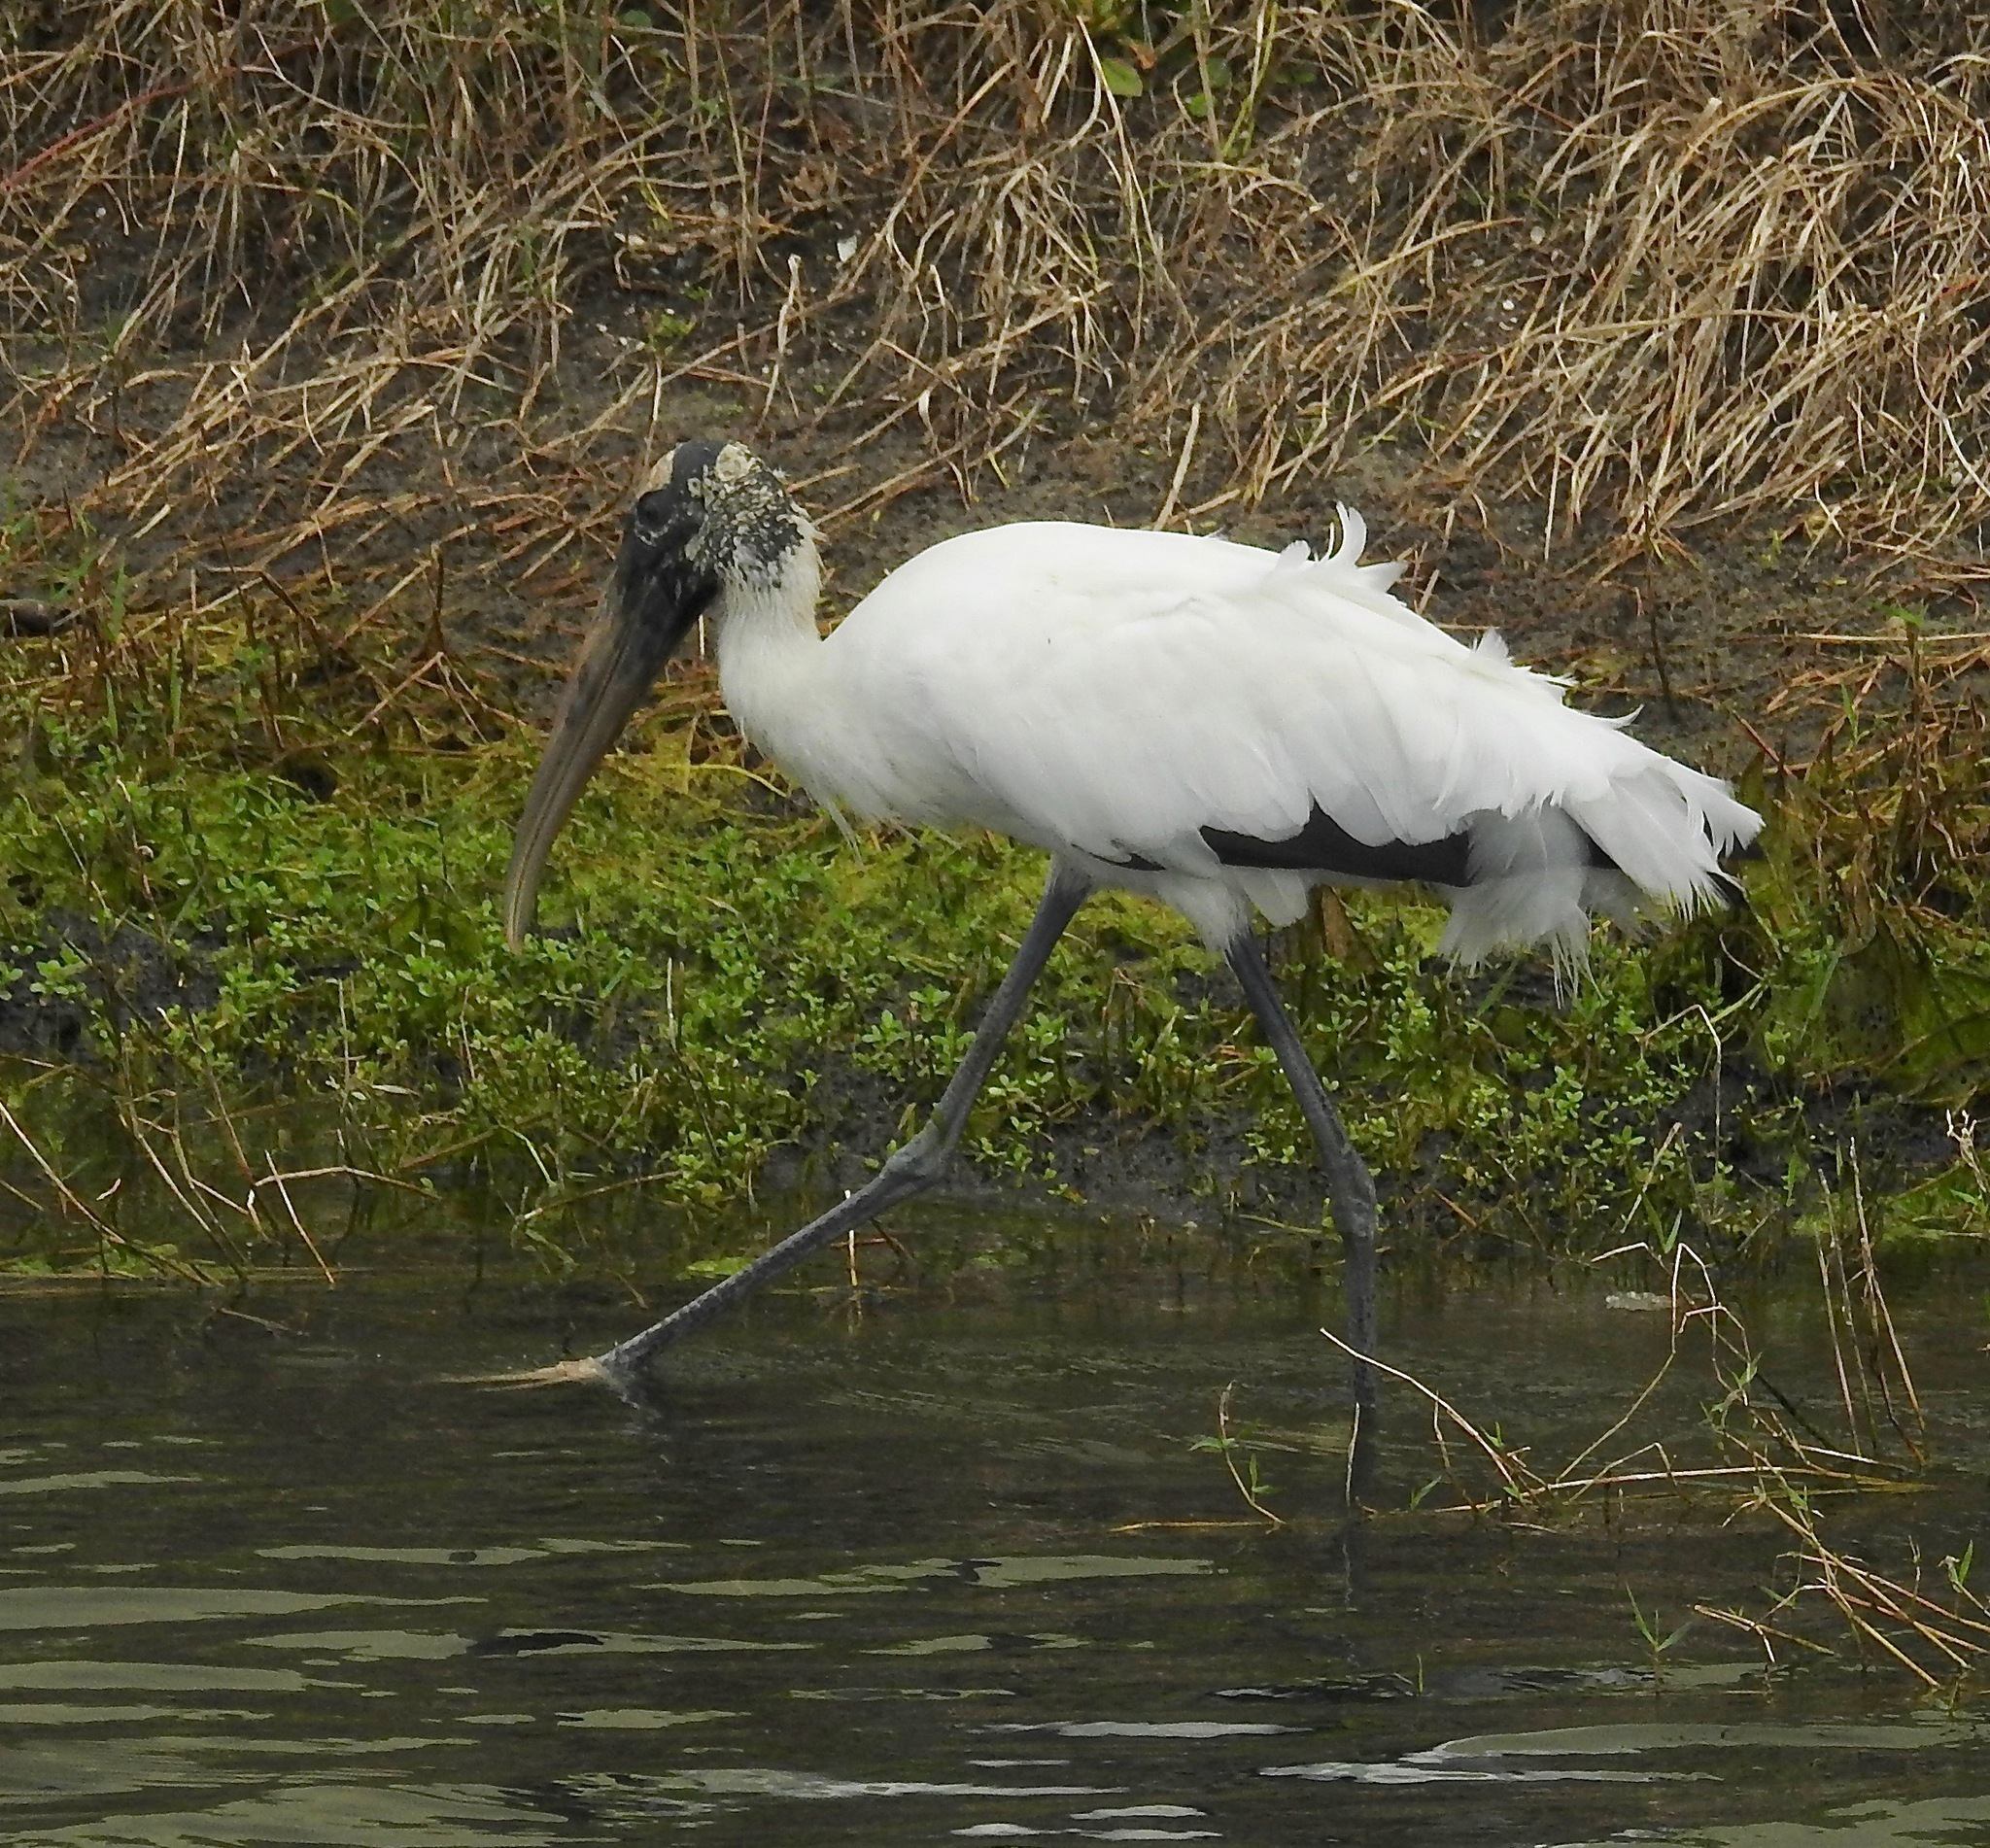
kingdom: Animalia
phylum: Chordata
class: Aves
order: Ciconiiformes
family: Ciconiidae
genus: Mycteria
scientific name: Mycteria americana
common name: Wood stork
